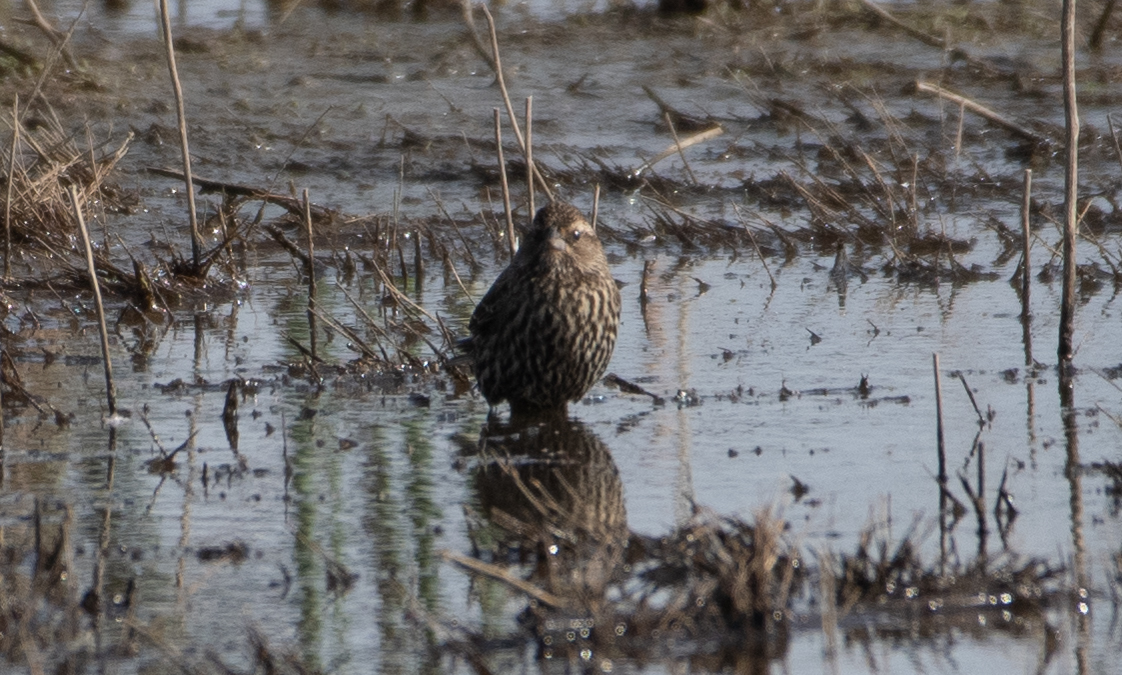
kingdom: Animalia
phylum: Chordata
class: Aves
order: Passeriformes
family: Icteridae
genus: Agelaius
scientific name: Agelaius phoeniceus
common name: Red-winged blackbird
